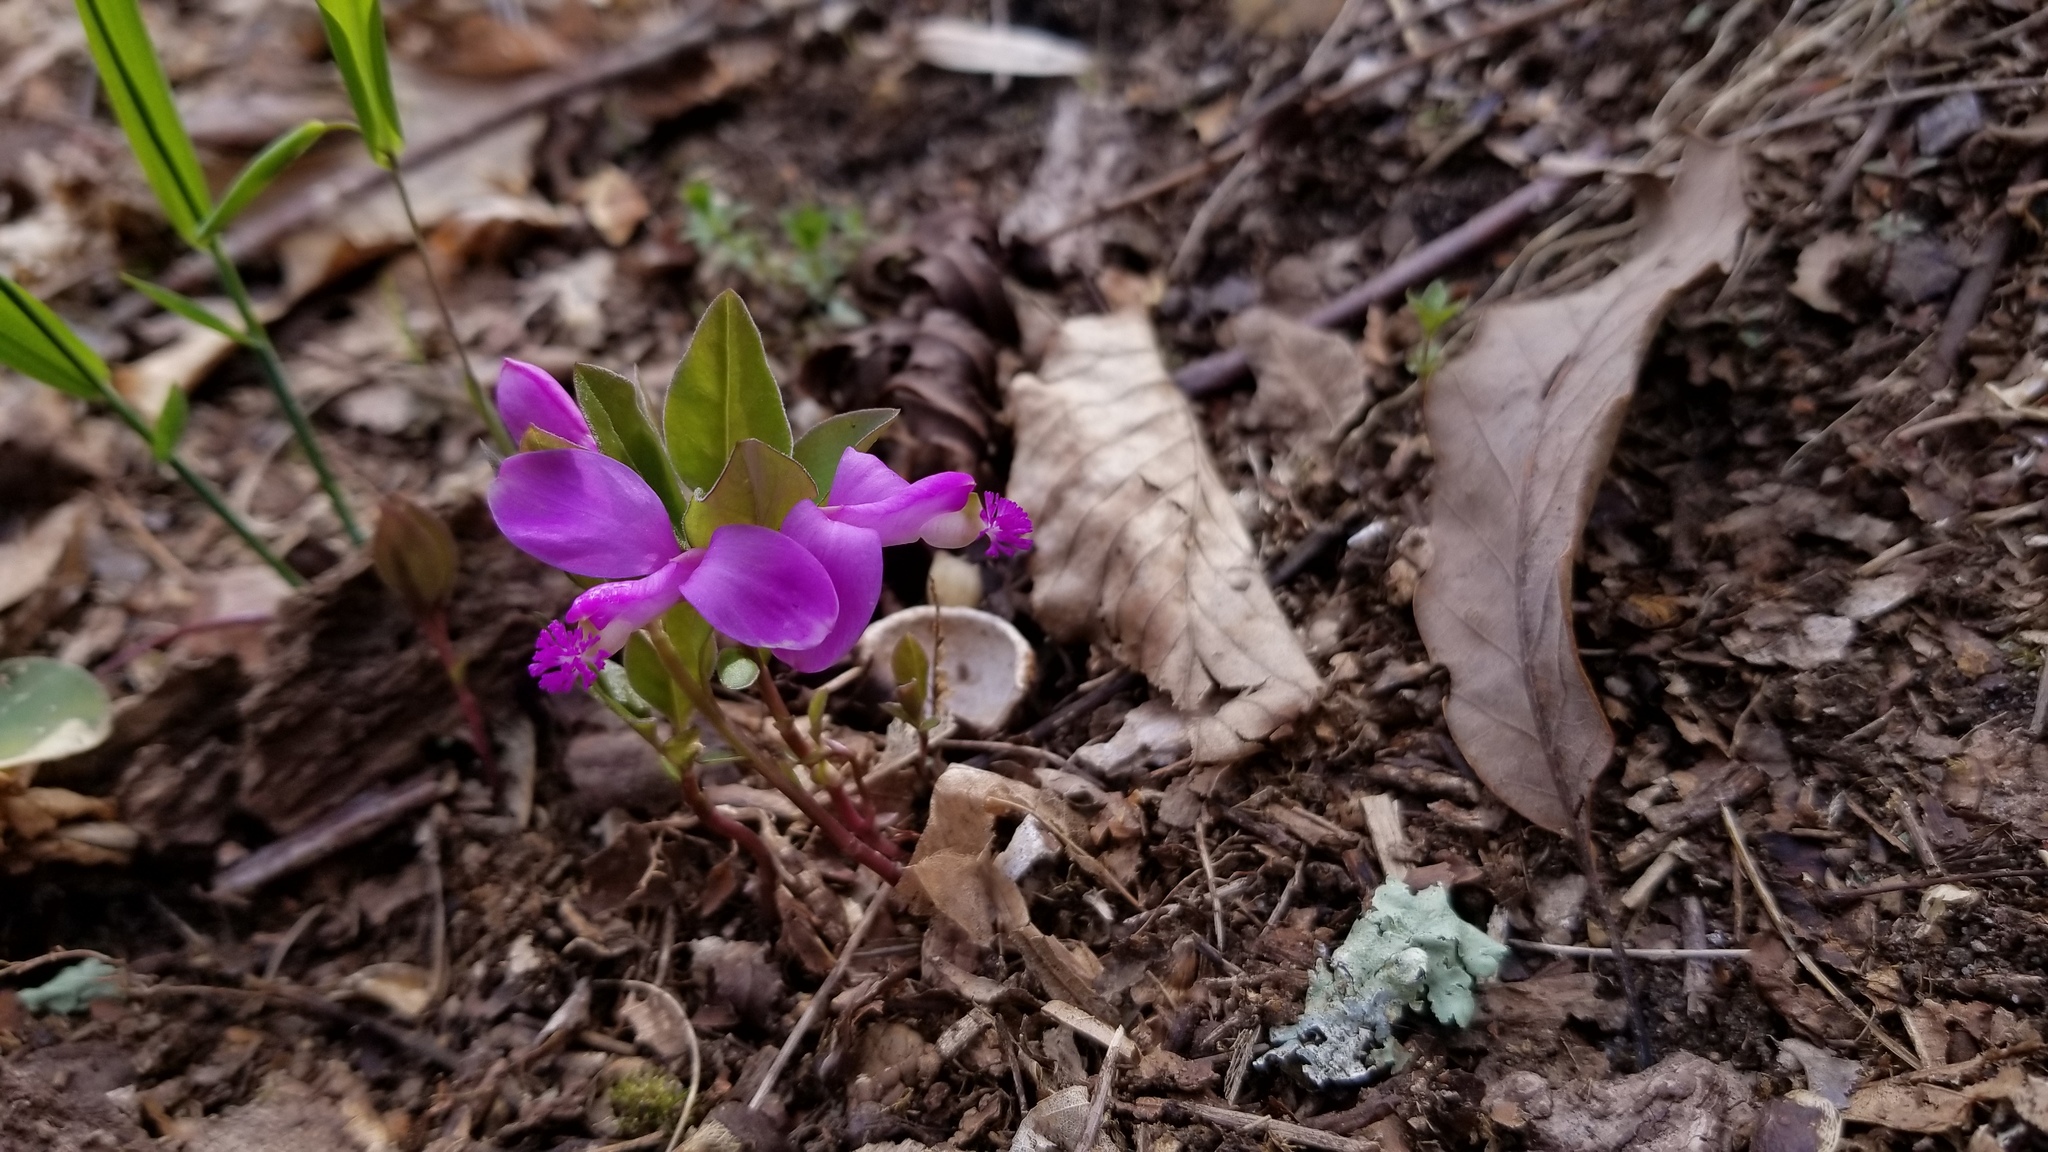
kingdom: Plantae
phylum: Tracheophyta
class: Magnoliopsida
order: Fabales
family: Polygalaceae
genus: Polygaloides
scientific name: Polygaloides paucifolia
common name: Bird-on-the-wing
